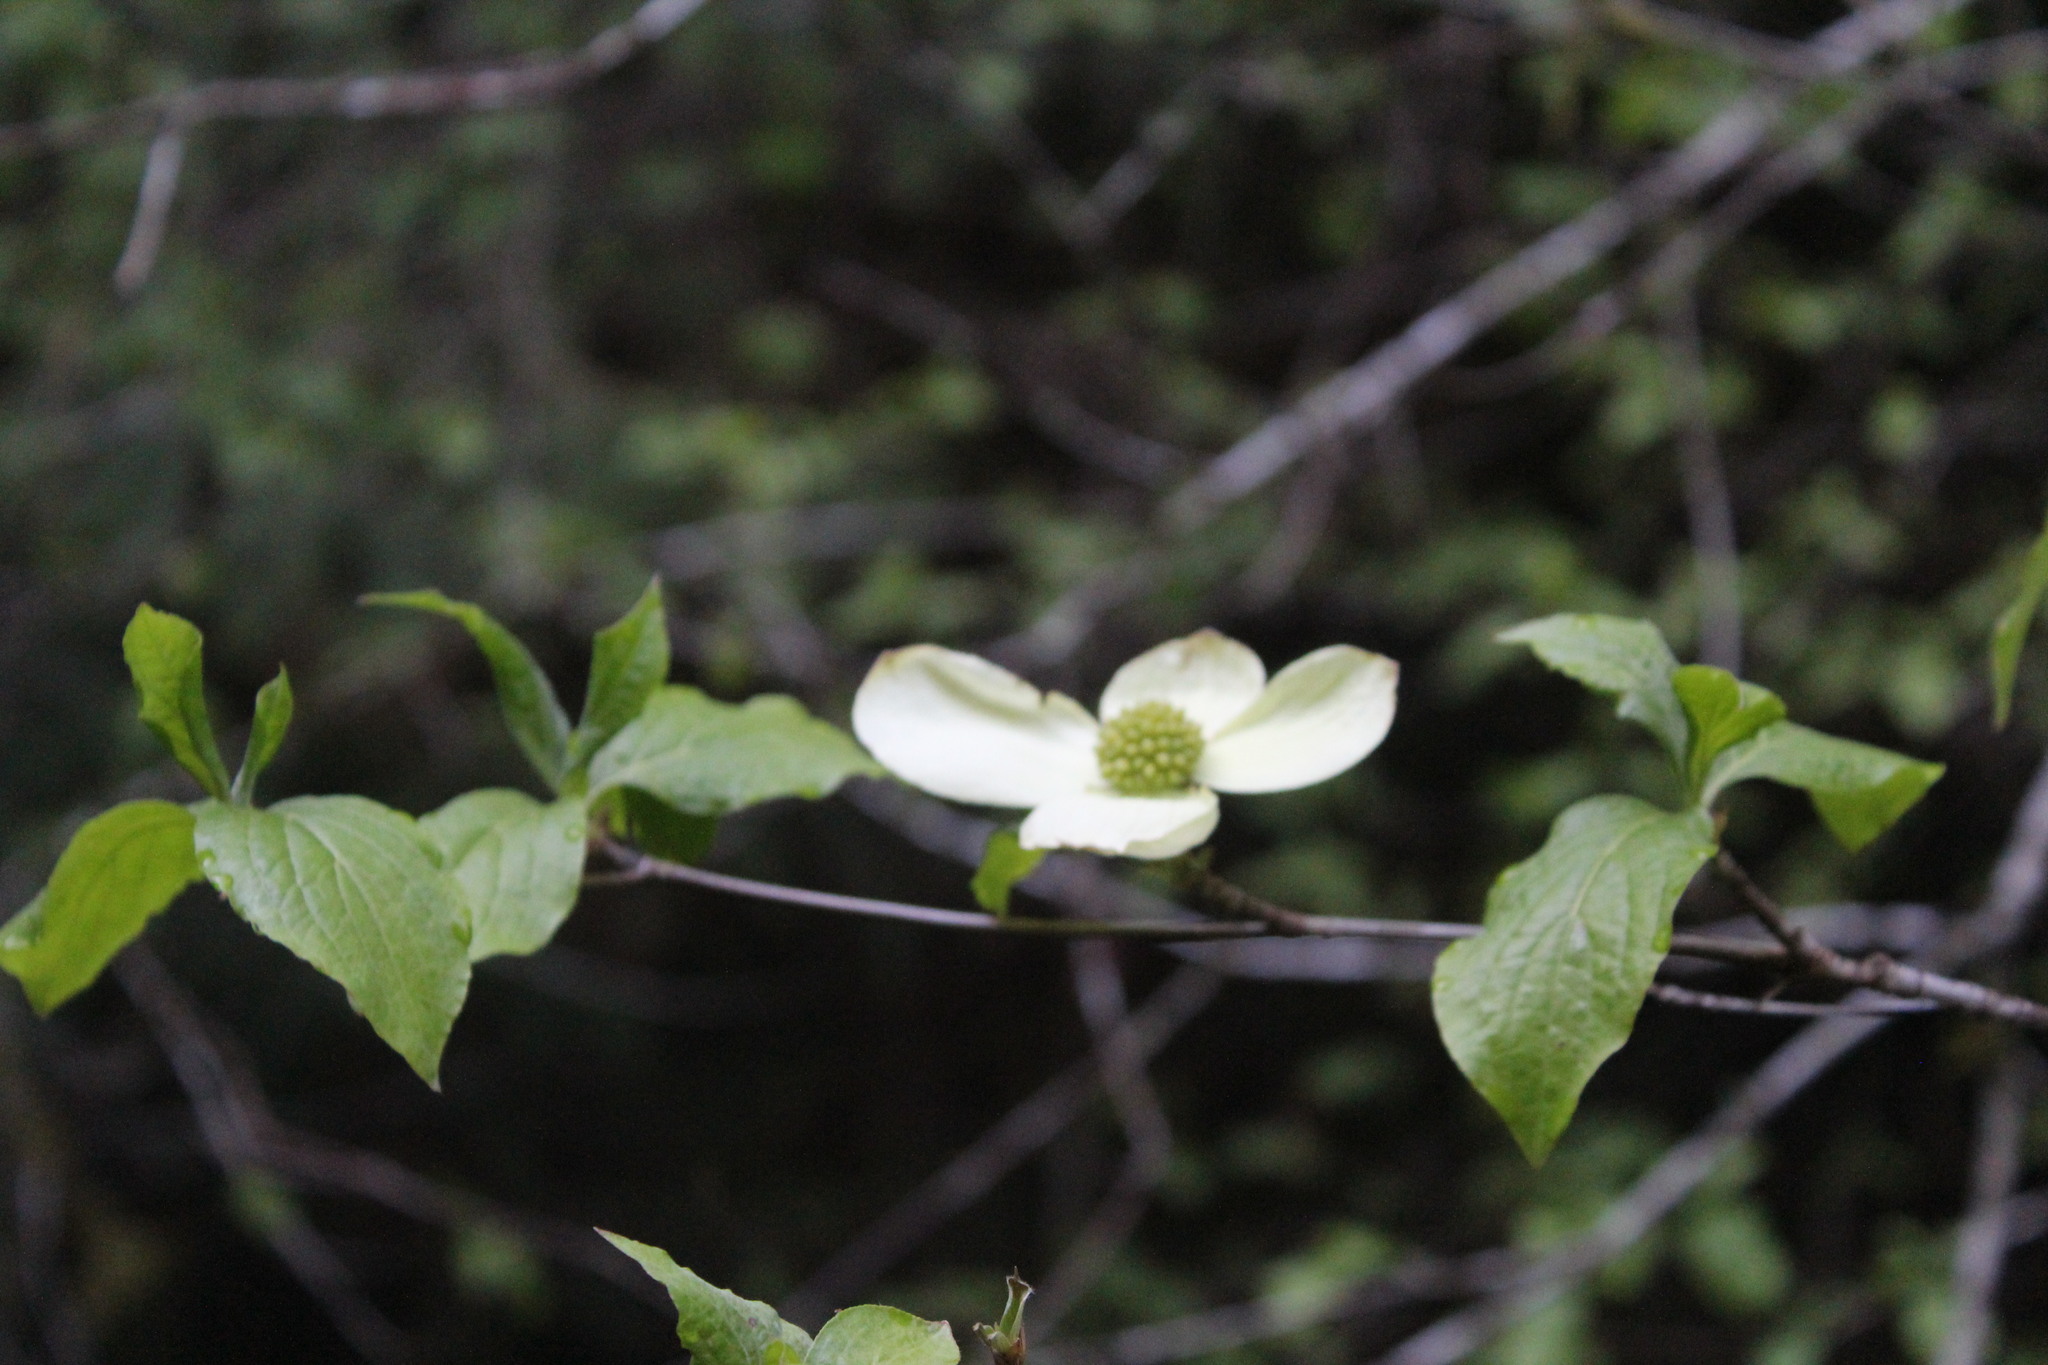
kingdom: Plantae
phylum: Tracheophyta
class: Magnoliopsida
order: Cornales
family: Cornaceae
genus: Cornus
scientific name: Cornus nuttallii
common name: Pacific dogwood
